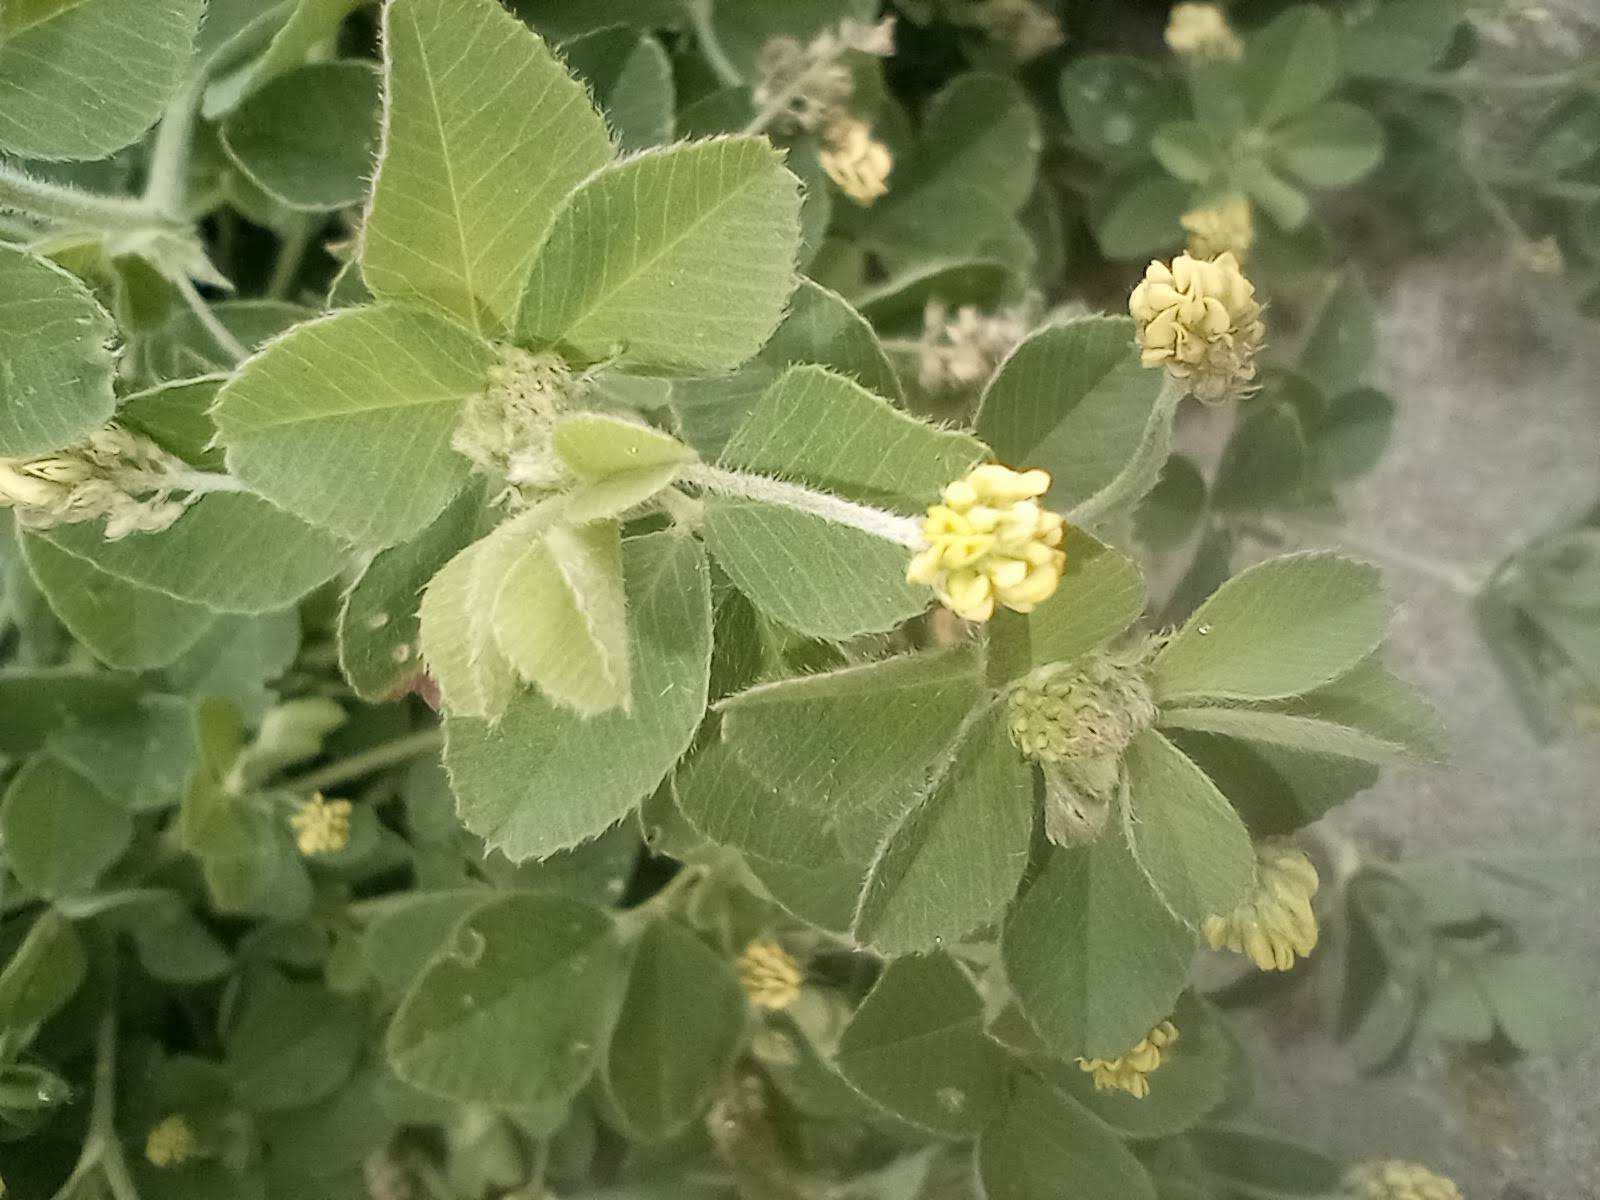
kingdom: Plantae
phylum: Tracheophyta
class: Magnoliopsida
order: Fabales
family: Fabaceae
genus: Medicago
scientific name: Medicago lupulina
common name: Black medick
